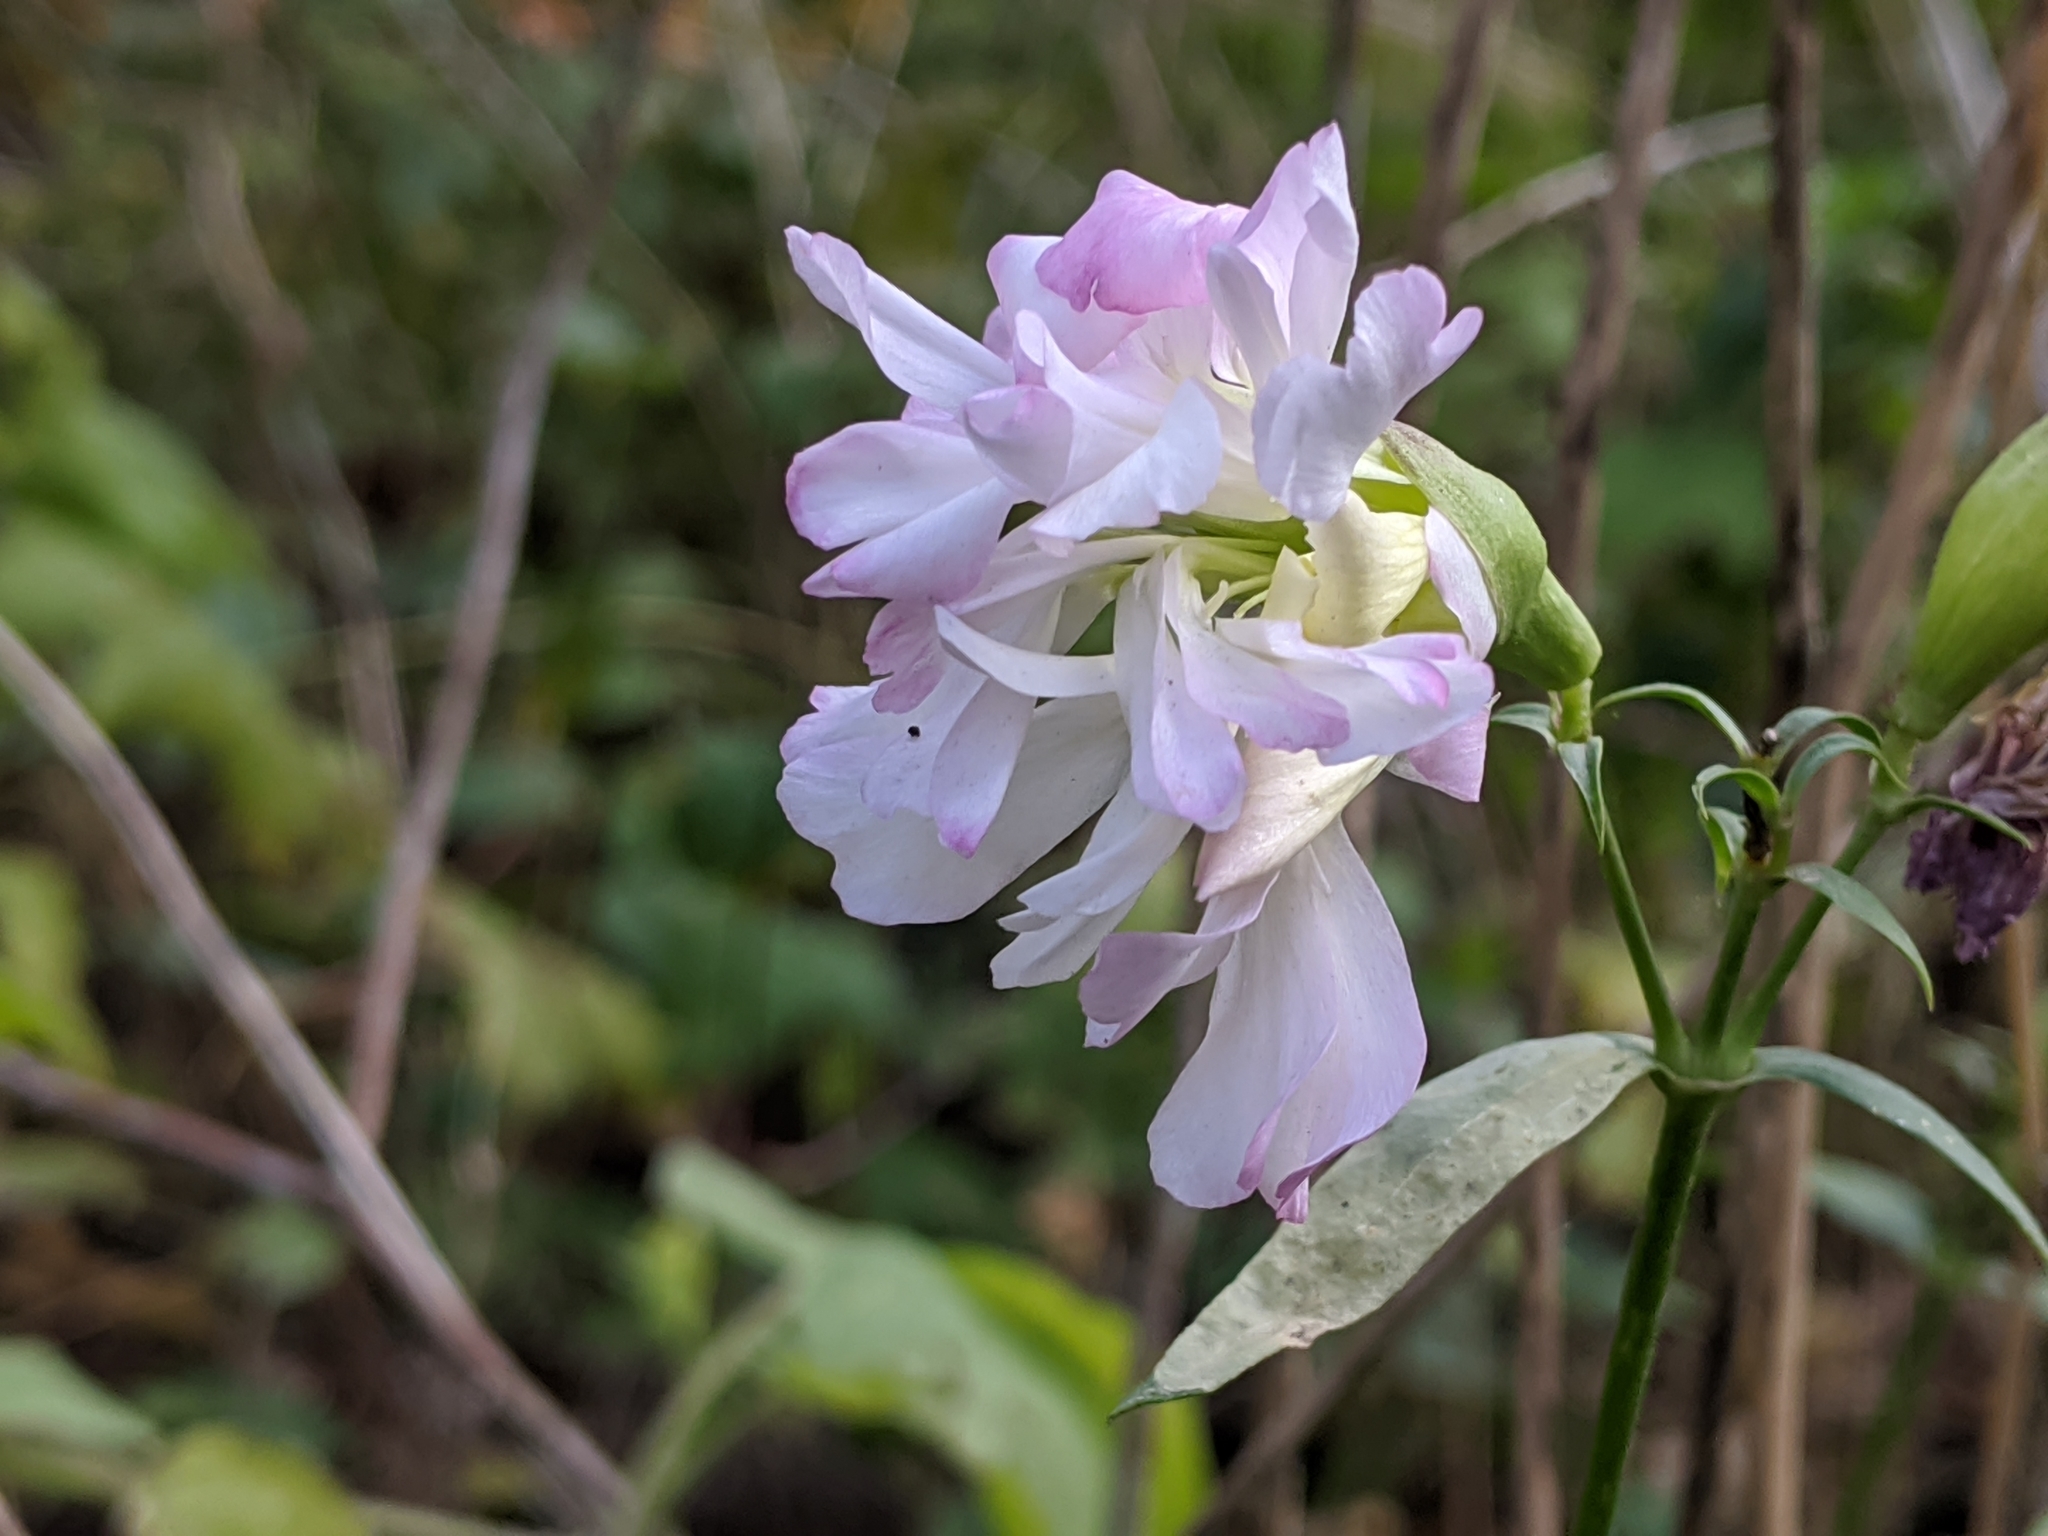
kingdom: Plantae
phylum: Tracheophyta
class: Magnoliopsida
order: Caryophyllales
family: Caryophyllaceae
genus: Saponaria
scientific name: Saponaria officinalis
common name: Soapwort
